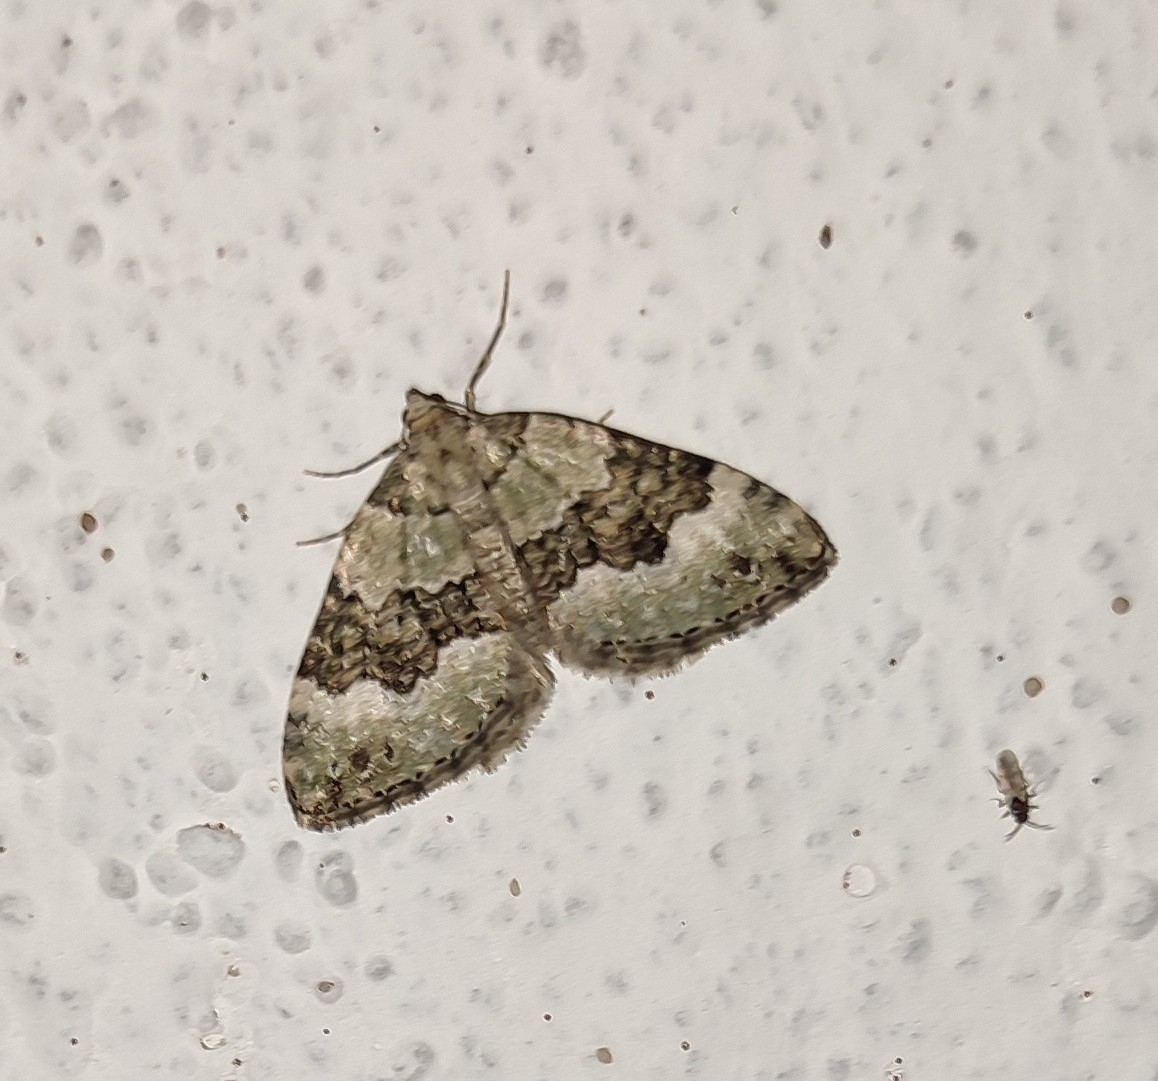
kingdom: Animalia
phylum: Arthropoda
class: Insecta
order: Lepidoptera
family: Geometridae
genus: Colostygia
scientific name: Colostygia aptata
